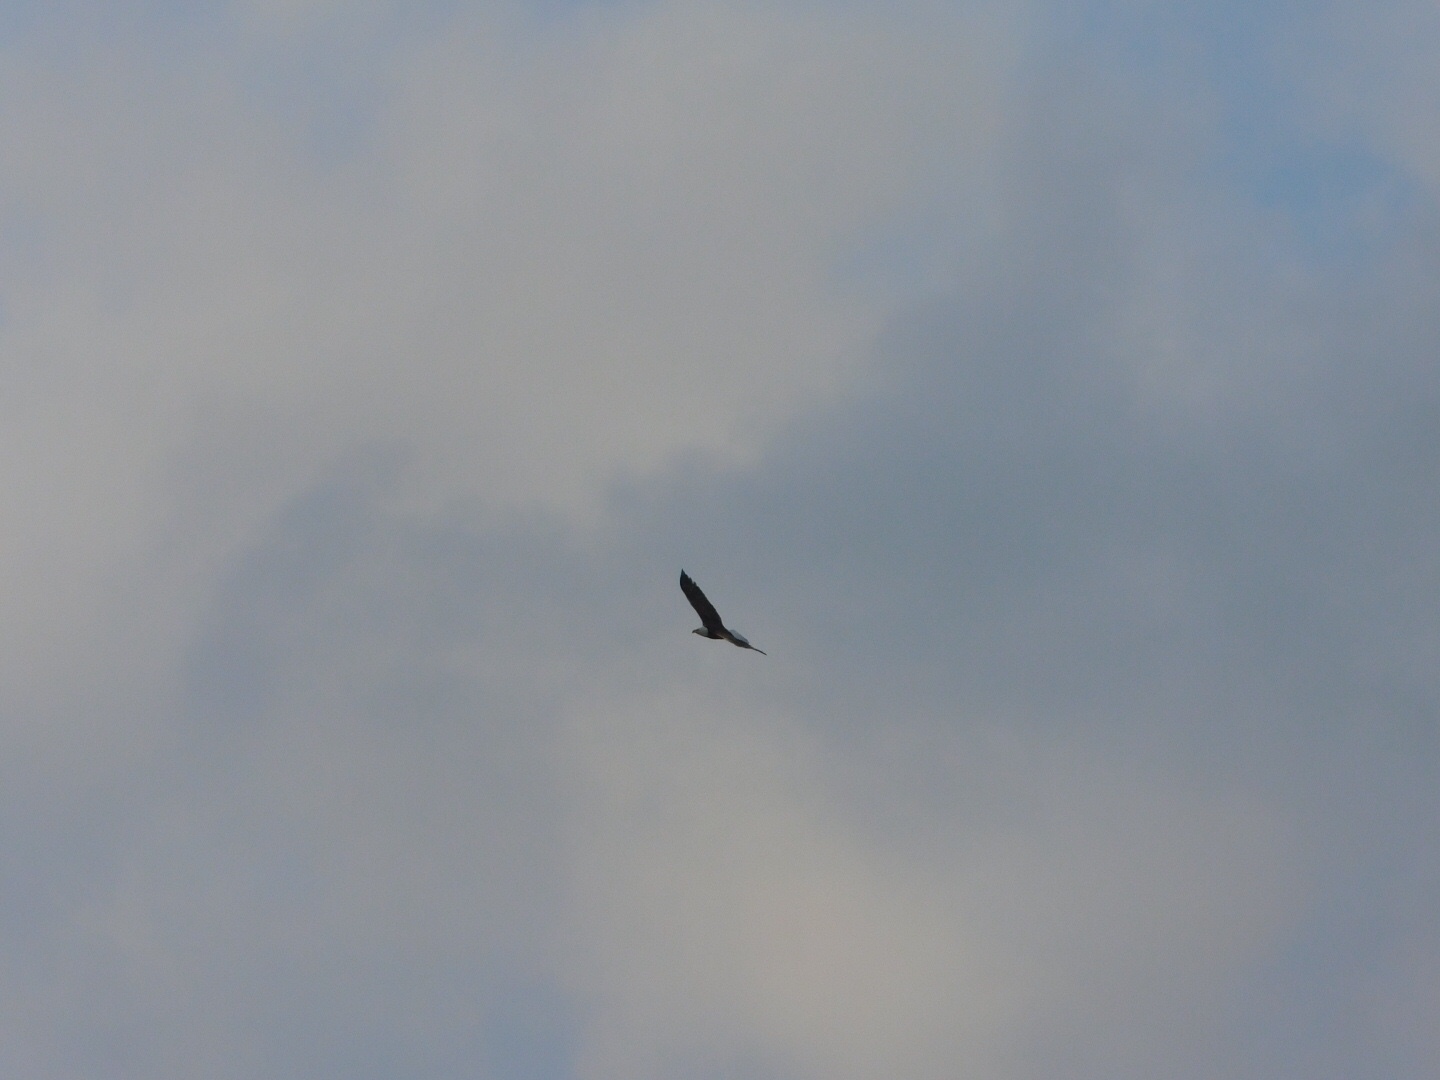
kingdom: Animalia
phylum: Chordata
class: Aves
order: Accipitriformes
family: Accipitridae
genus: Haliaeetus
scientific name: Haliaeetus leucocephalus
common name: Bald eagle
